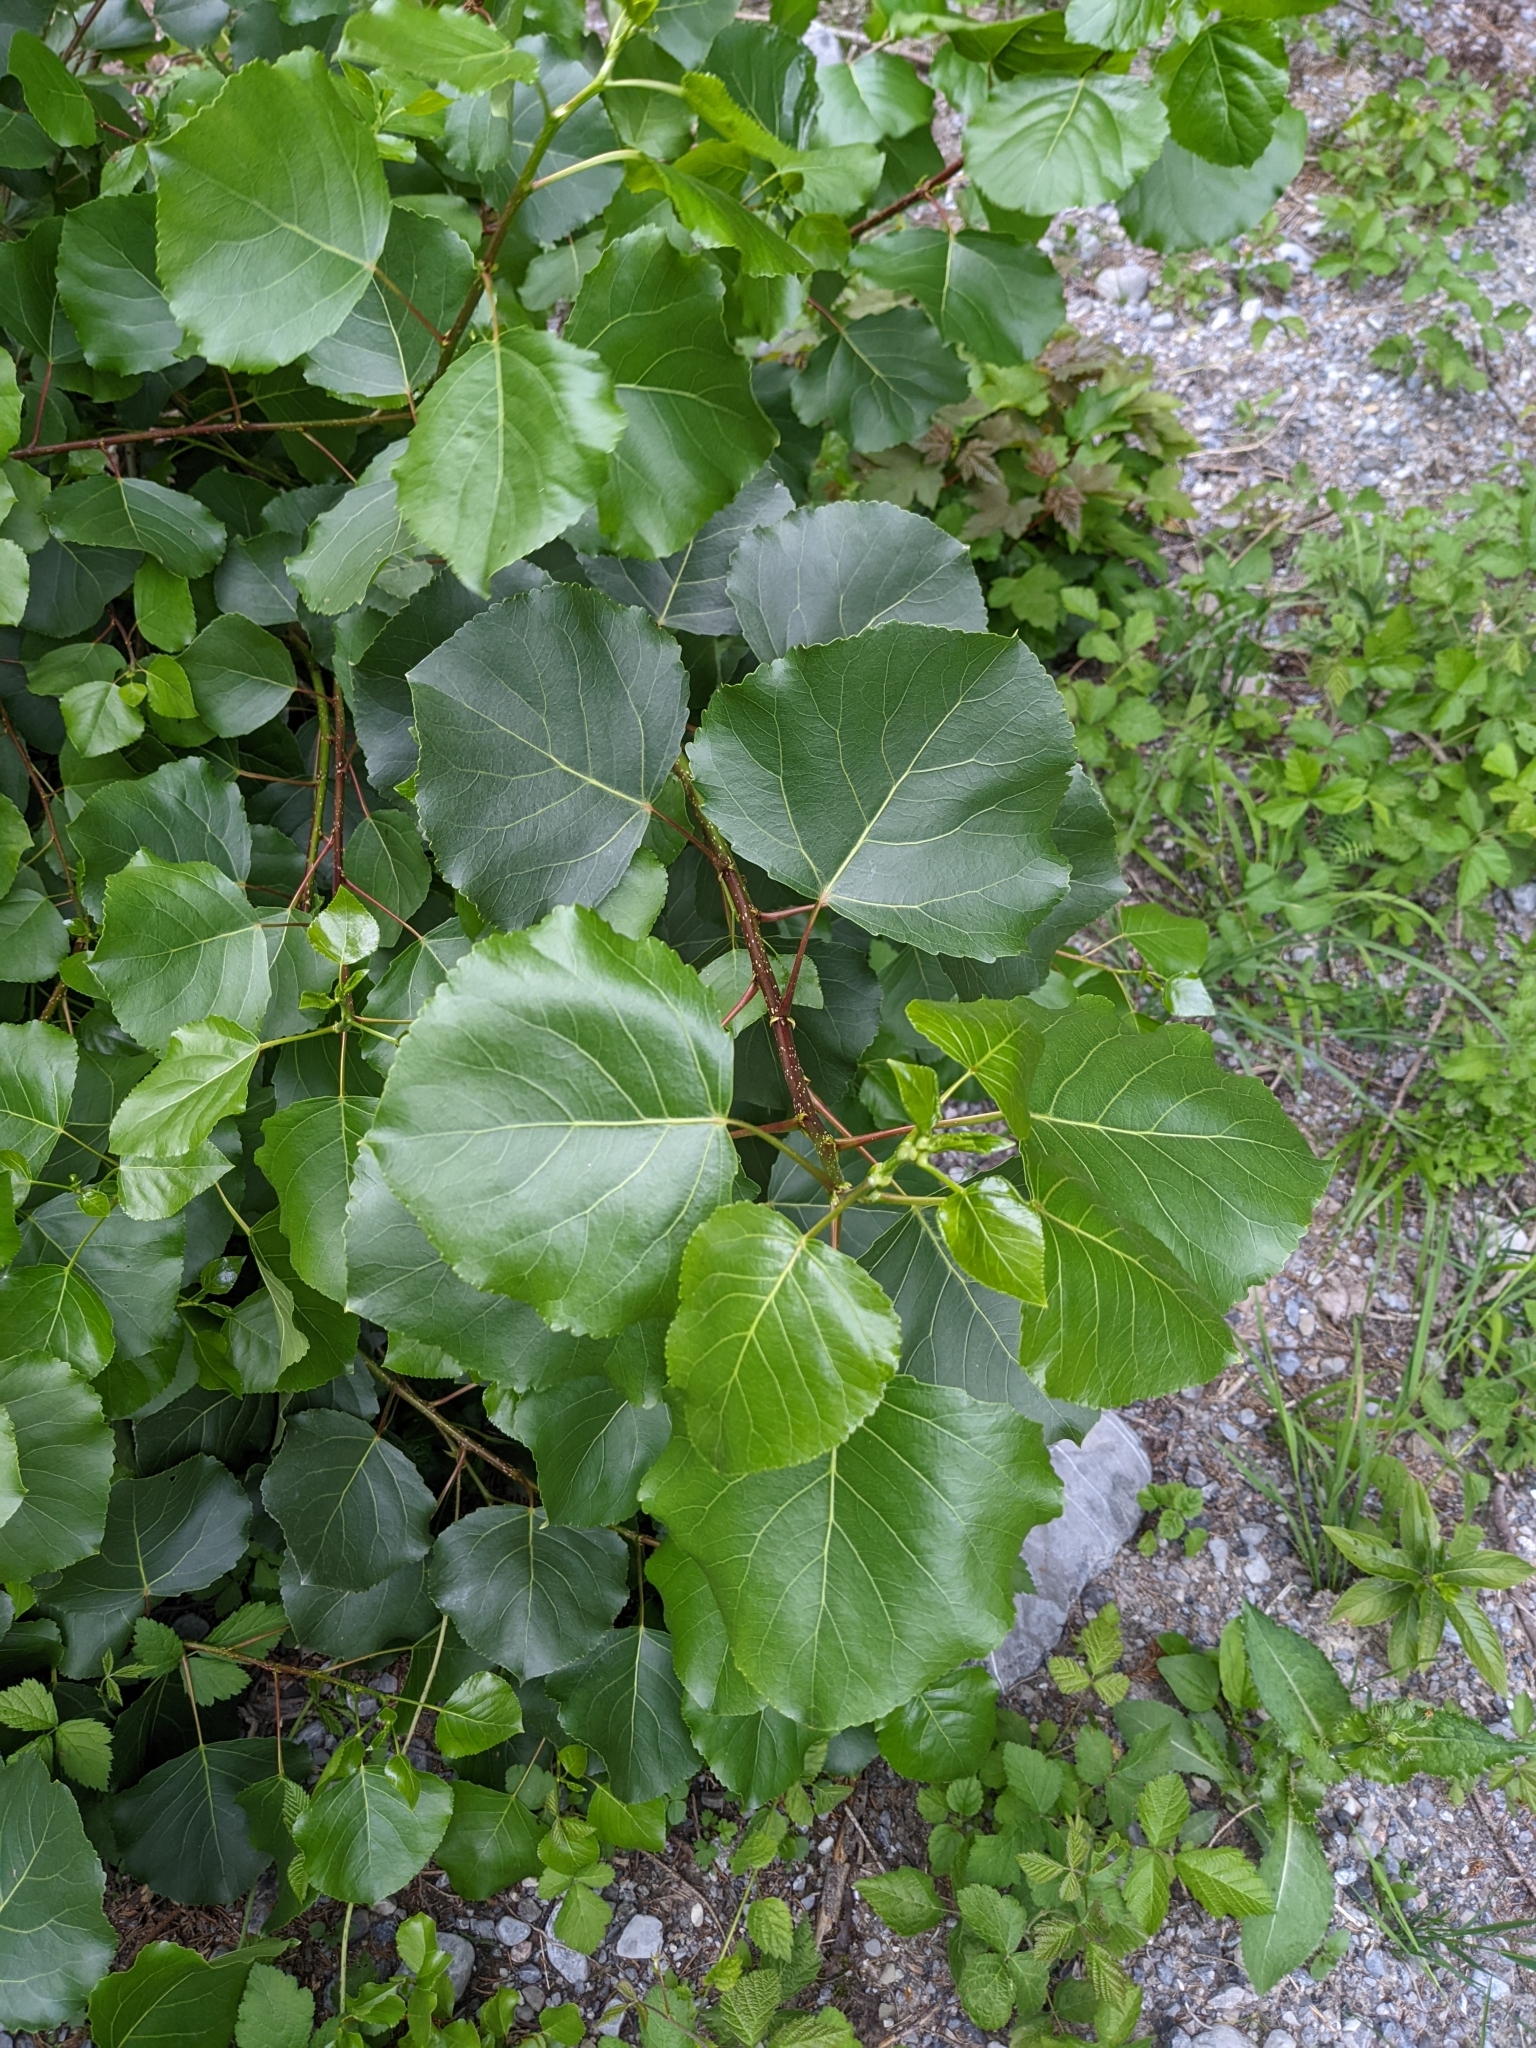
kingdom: Plantae
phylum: Tracheophyta
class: Magnoliopsida
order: Malpighiales
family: Salicaceae
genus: Populus
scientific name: Populus nigra
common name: Black poplar
